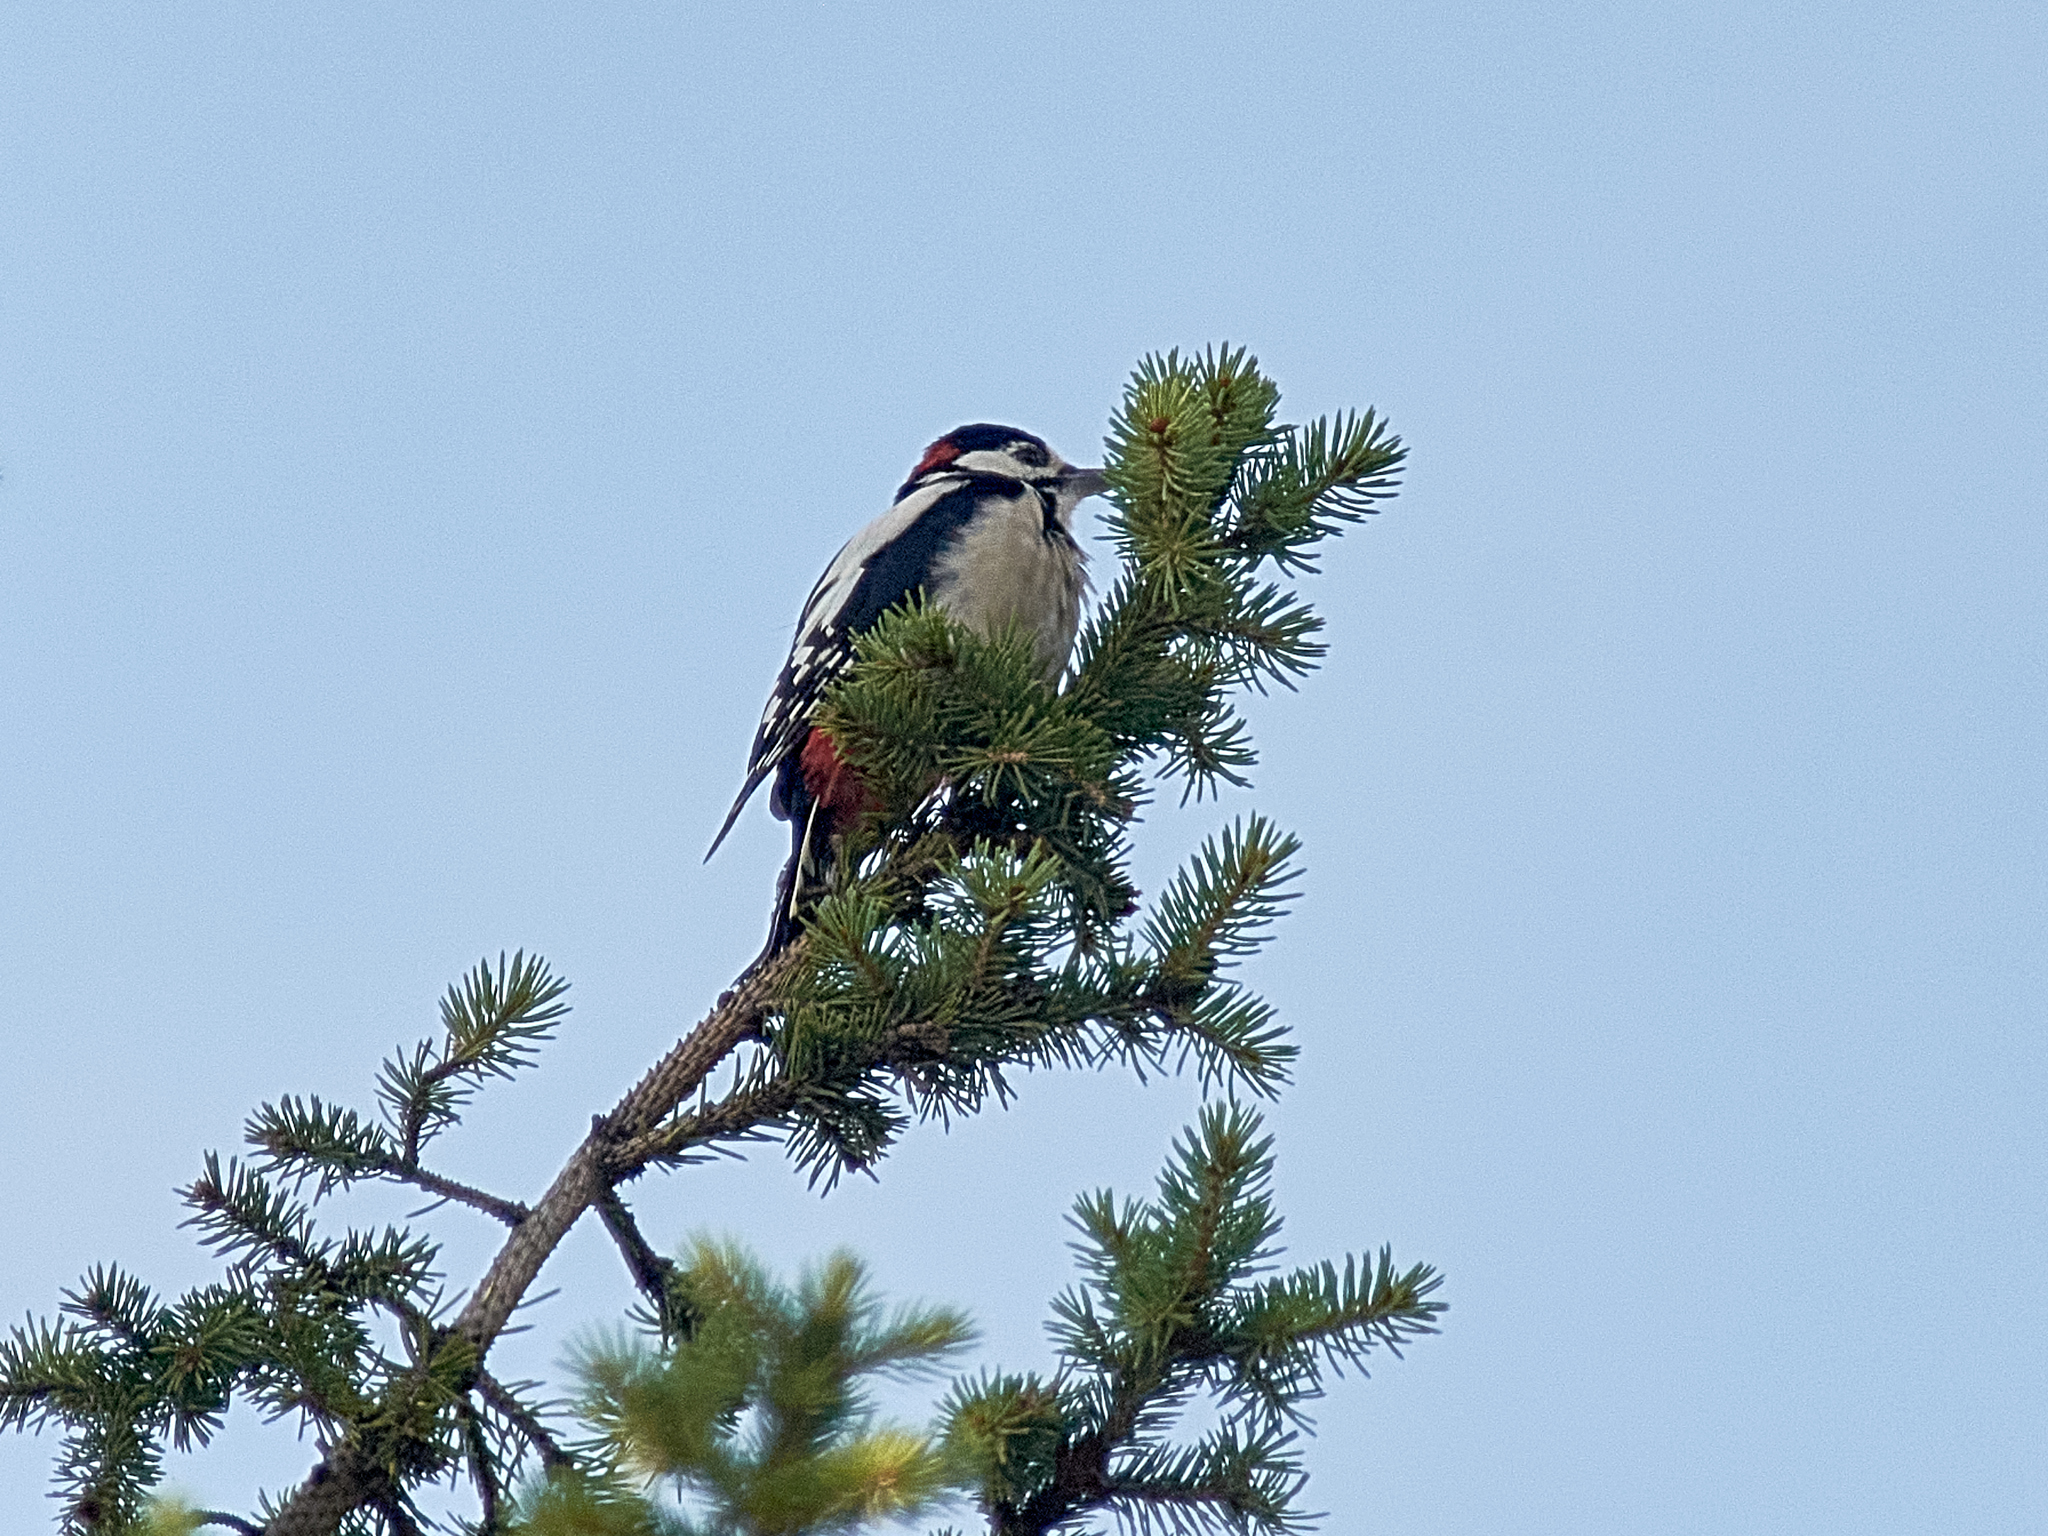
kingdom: Animalia
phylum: Chordata
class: Aves
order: Piciformes
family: Picidae
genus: Dendrocopos
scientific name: Dendrocopos major
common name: Great spotted woodpecker
